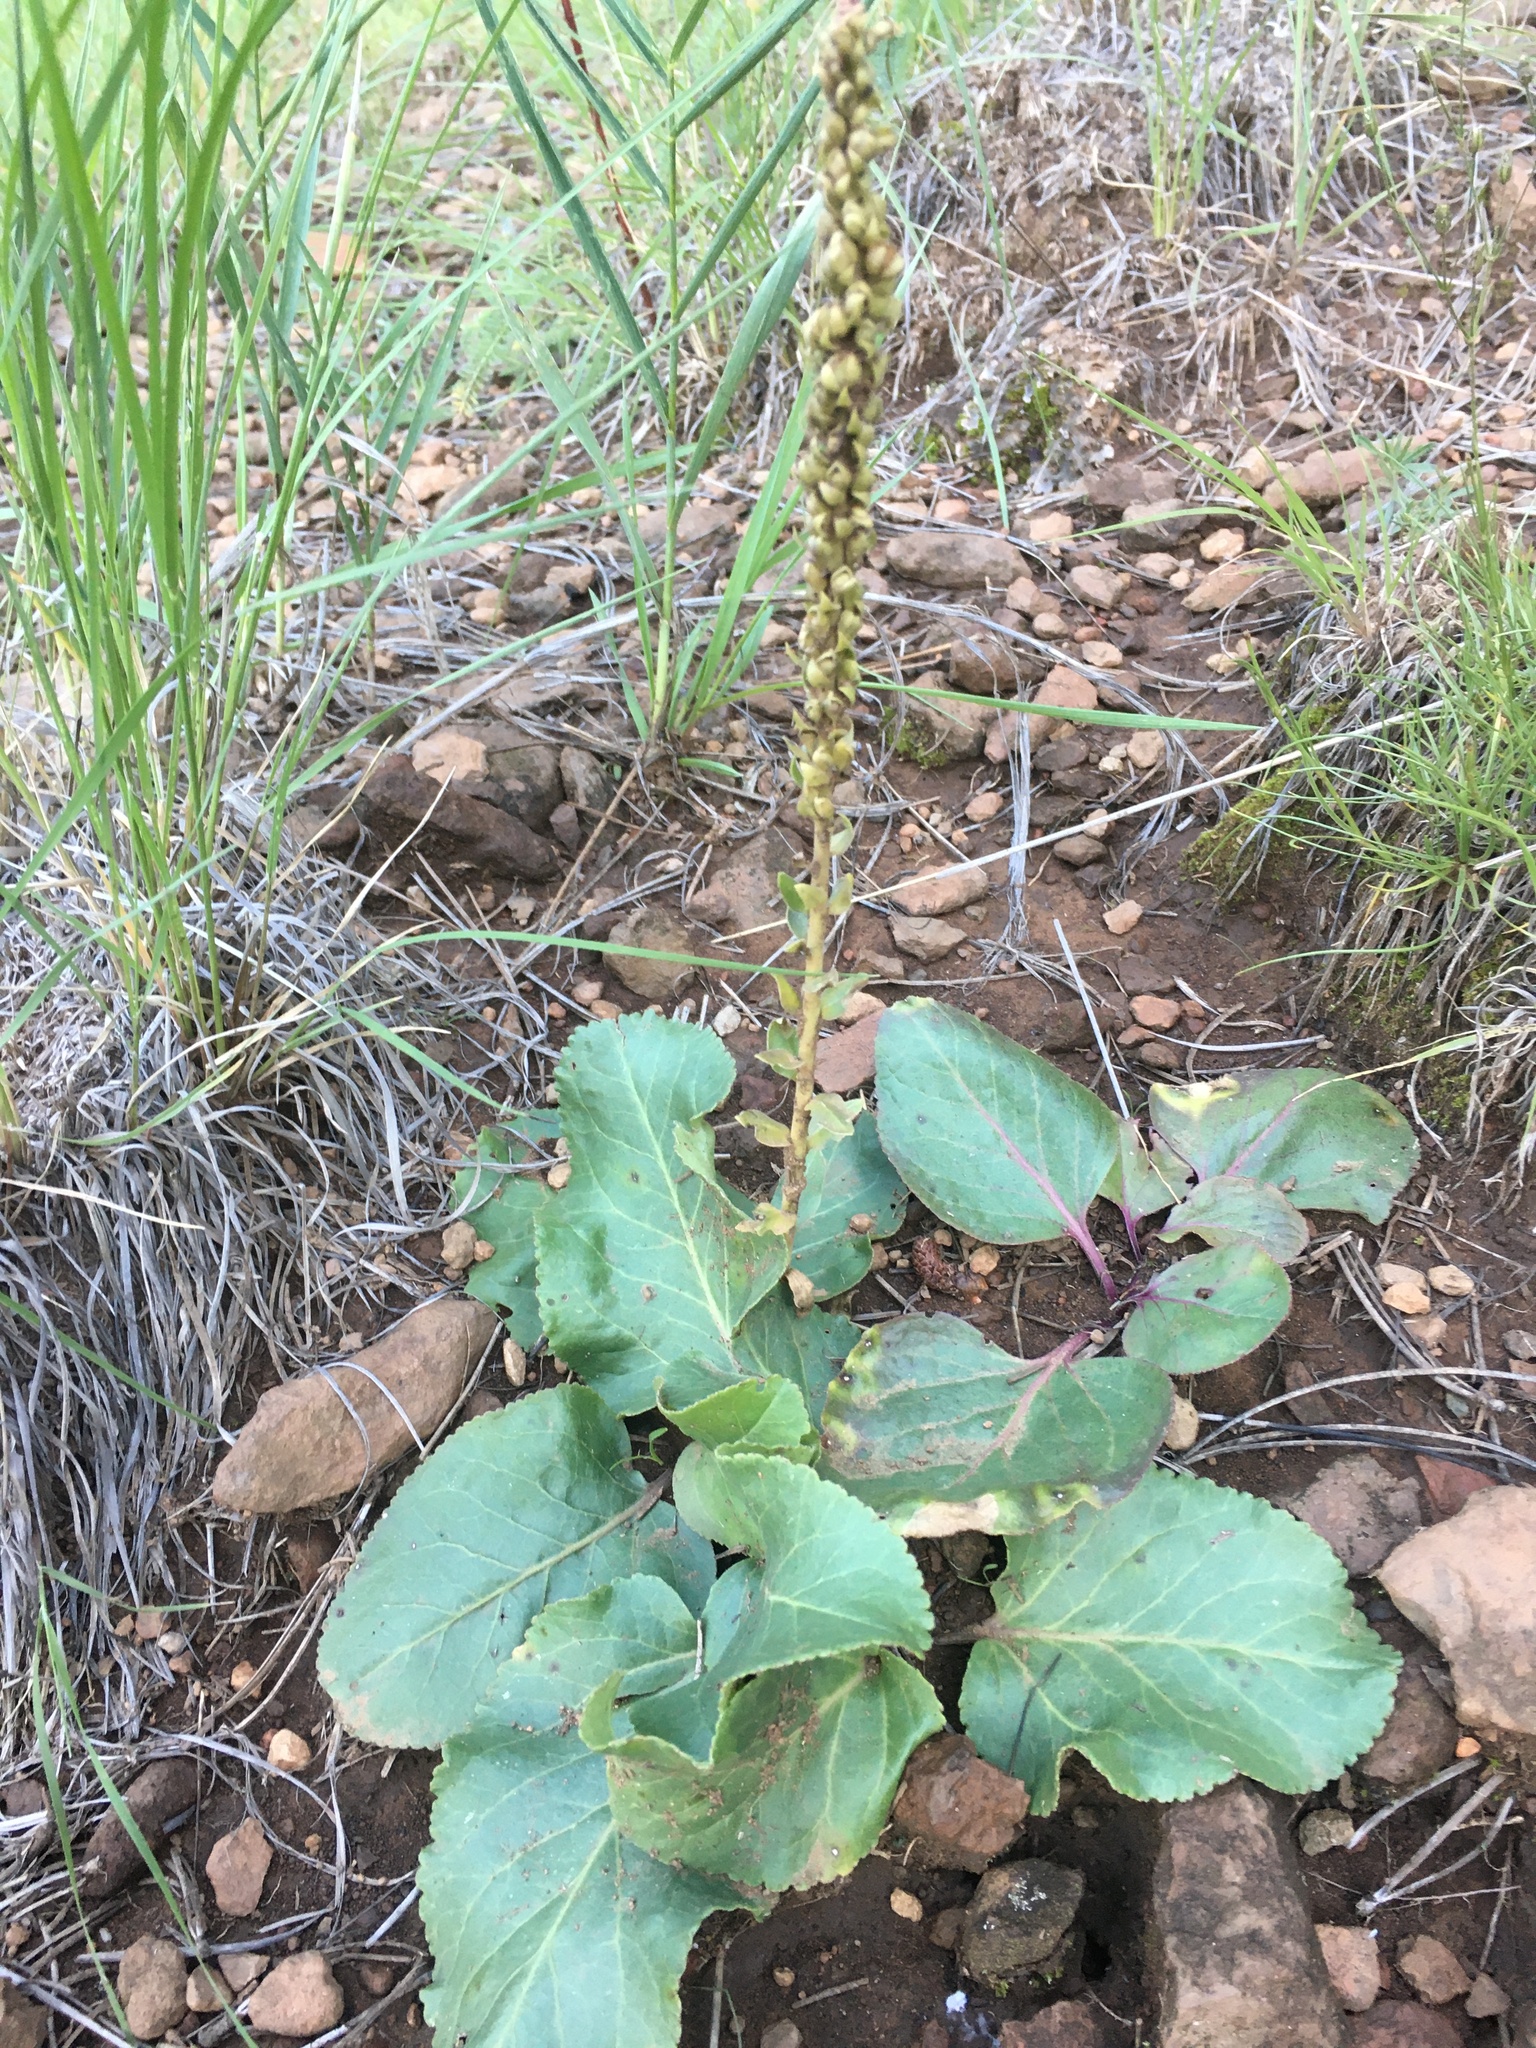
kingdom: Plantae
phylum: Tracheophyta
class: Magnoliopsida
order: Lamiales
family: Plantaginaceae
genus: Veronica
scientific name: Veronica plantaginea
